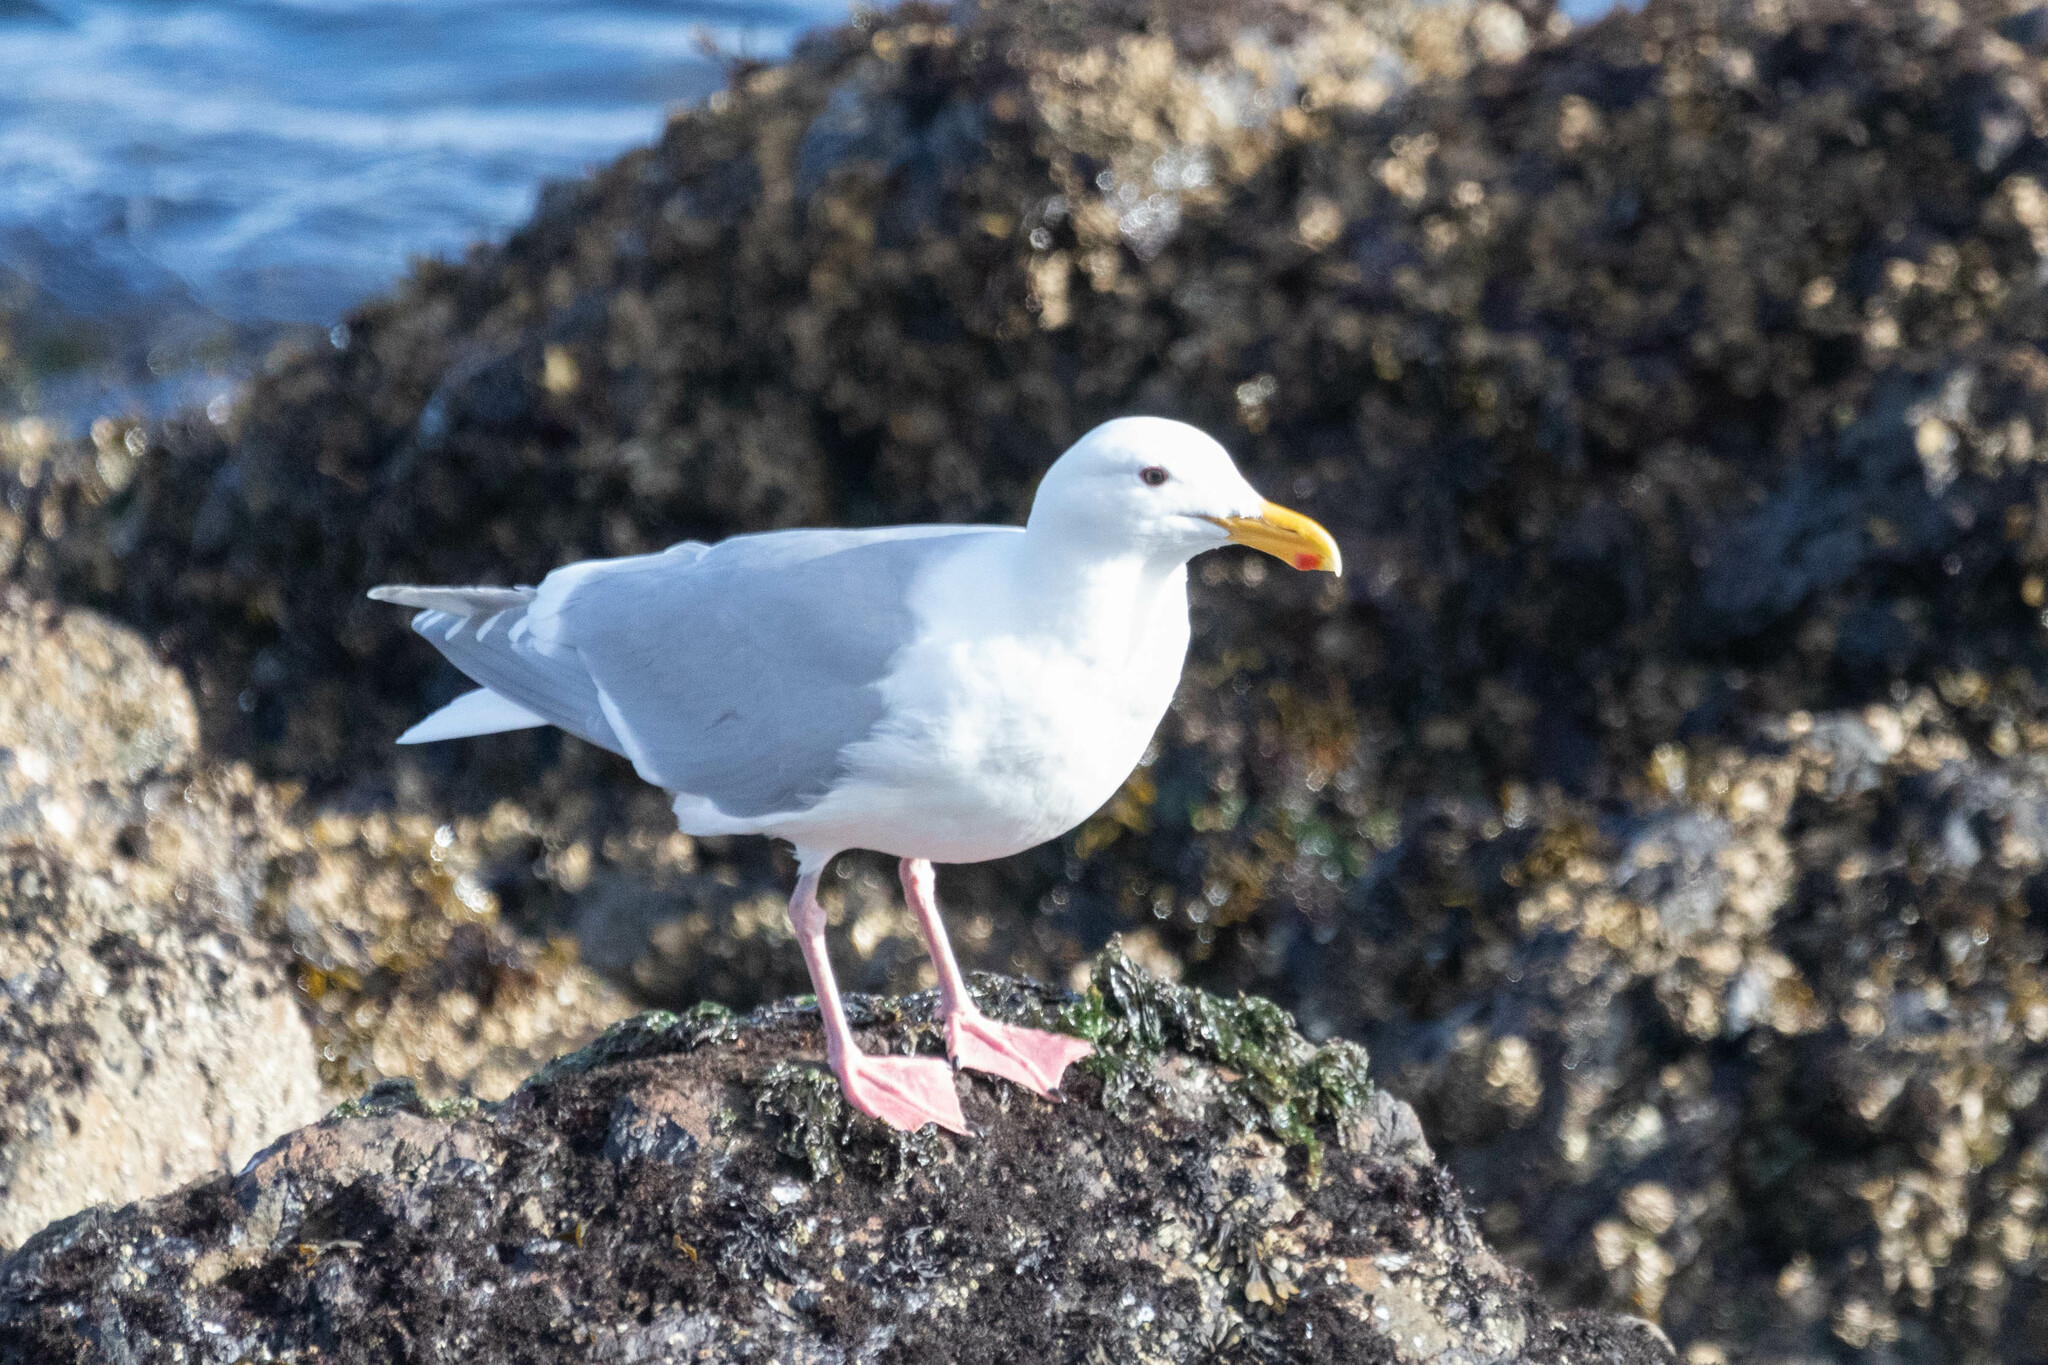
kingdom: Animalia
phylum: Chordata
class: Aves
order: Charadriiformes
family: Laridae
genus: Larus
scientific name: Larus glaucescens
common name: Glaucous-winged gull
